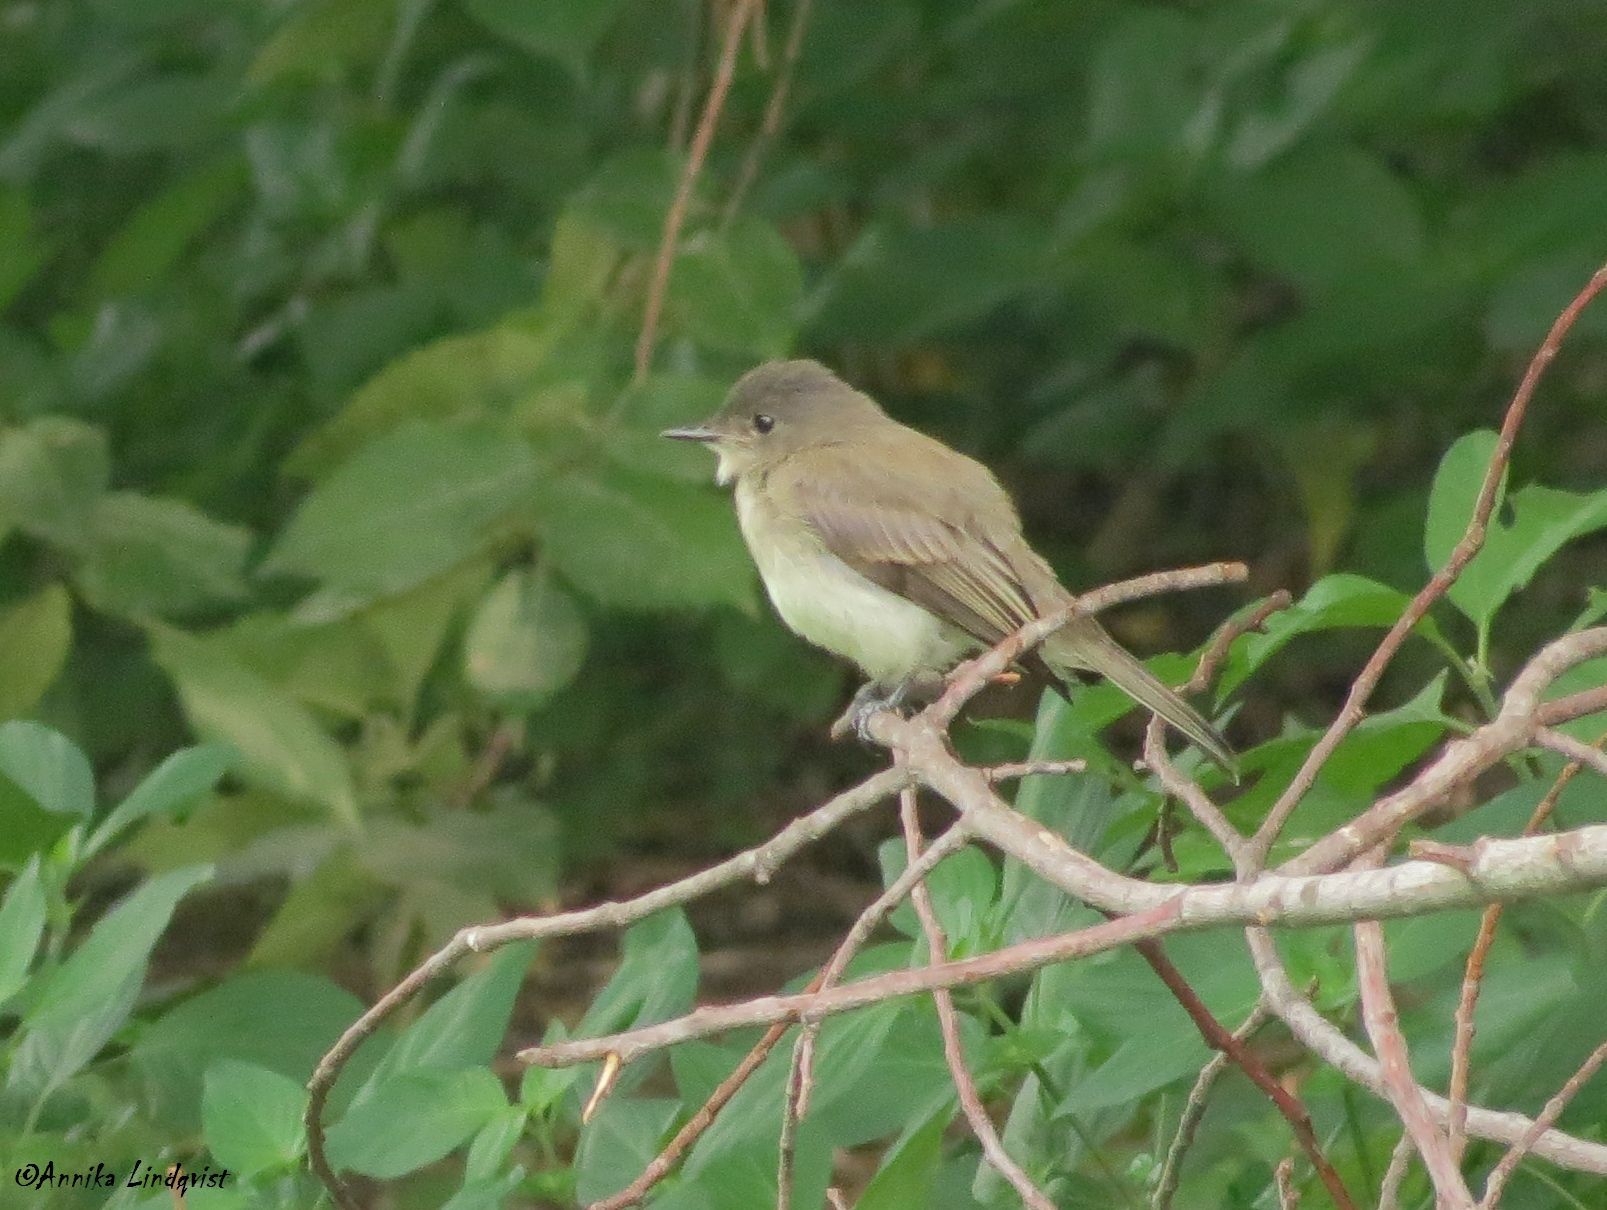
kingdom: Animalia
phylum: Chordata
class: Aves
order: Passeriformes
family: Tyrannidae
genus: Sayornis
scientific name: Sayornis phoebe
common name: Eastern phoebe
